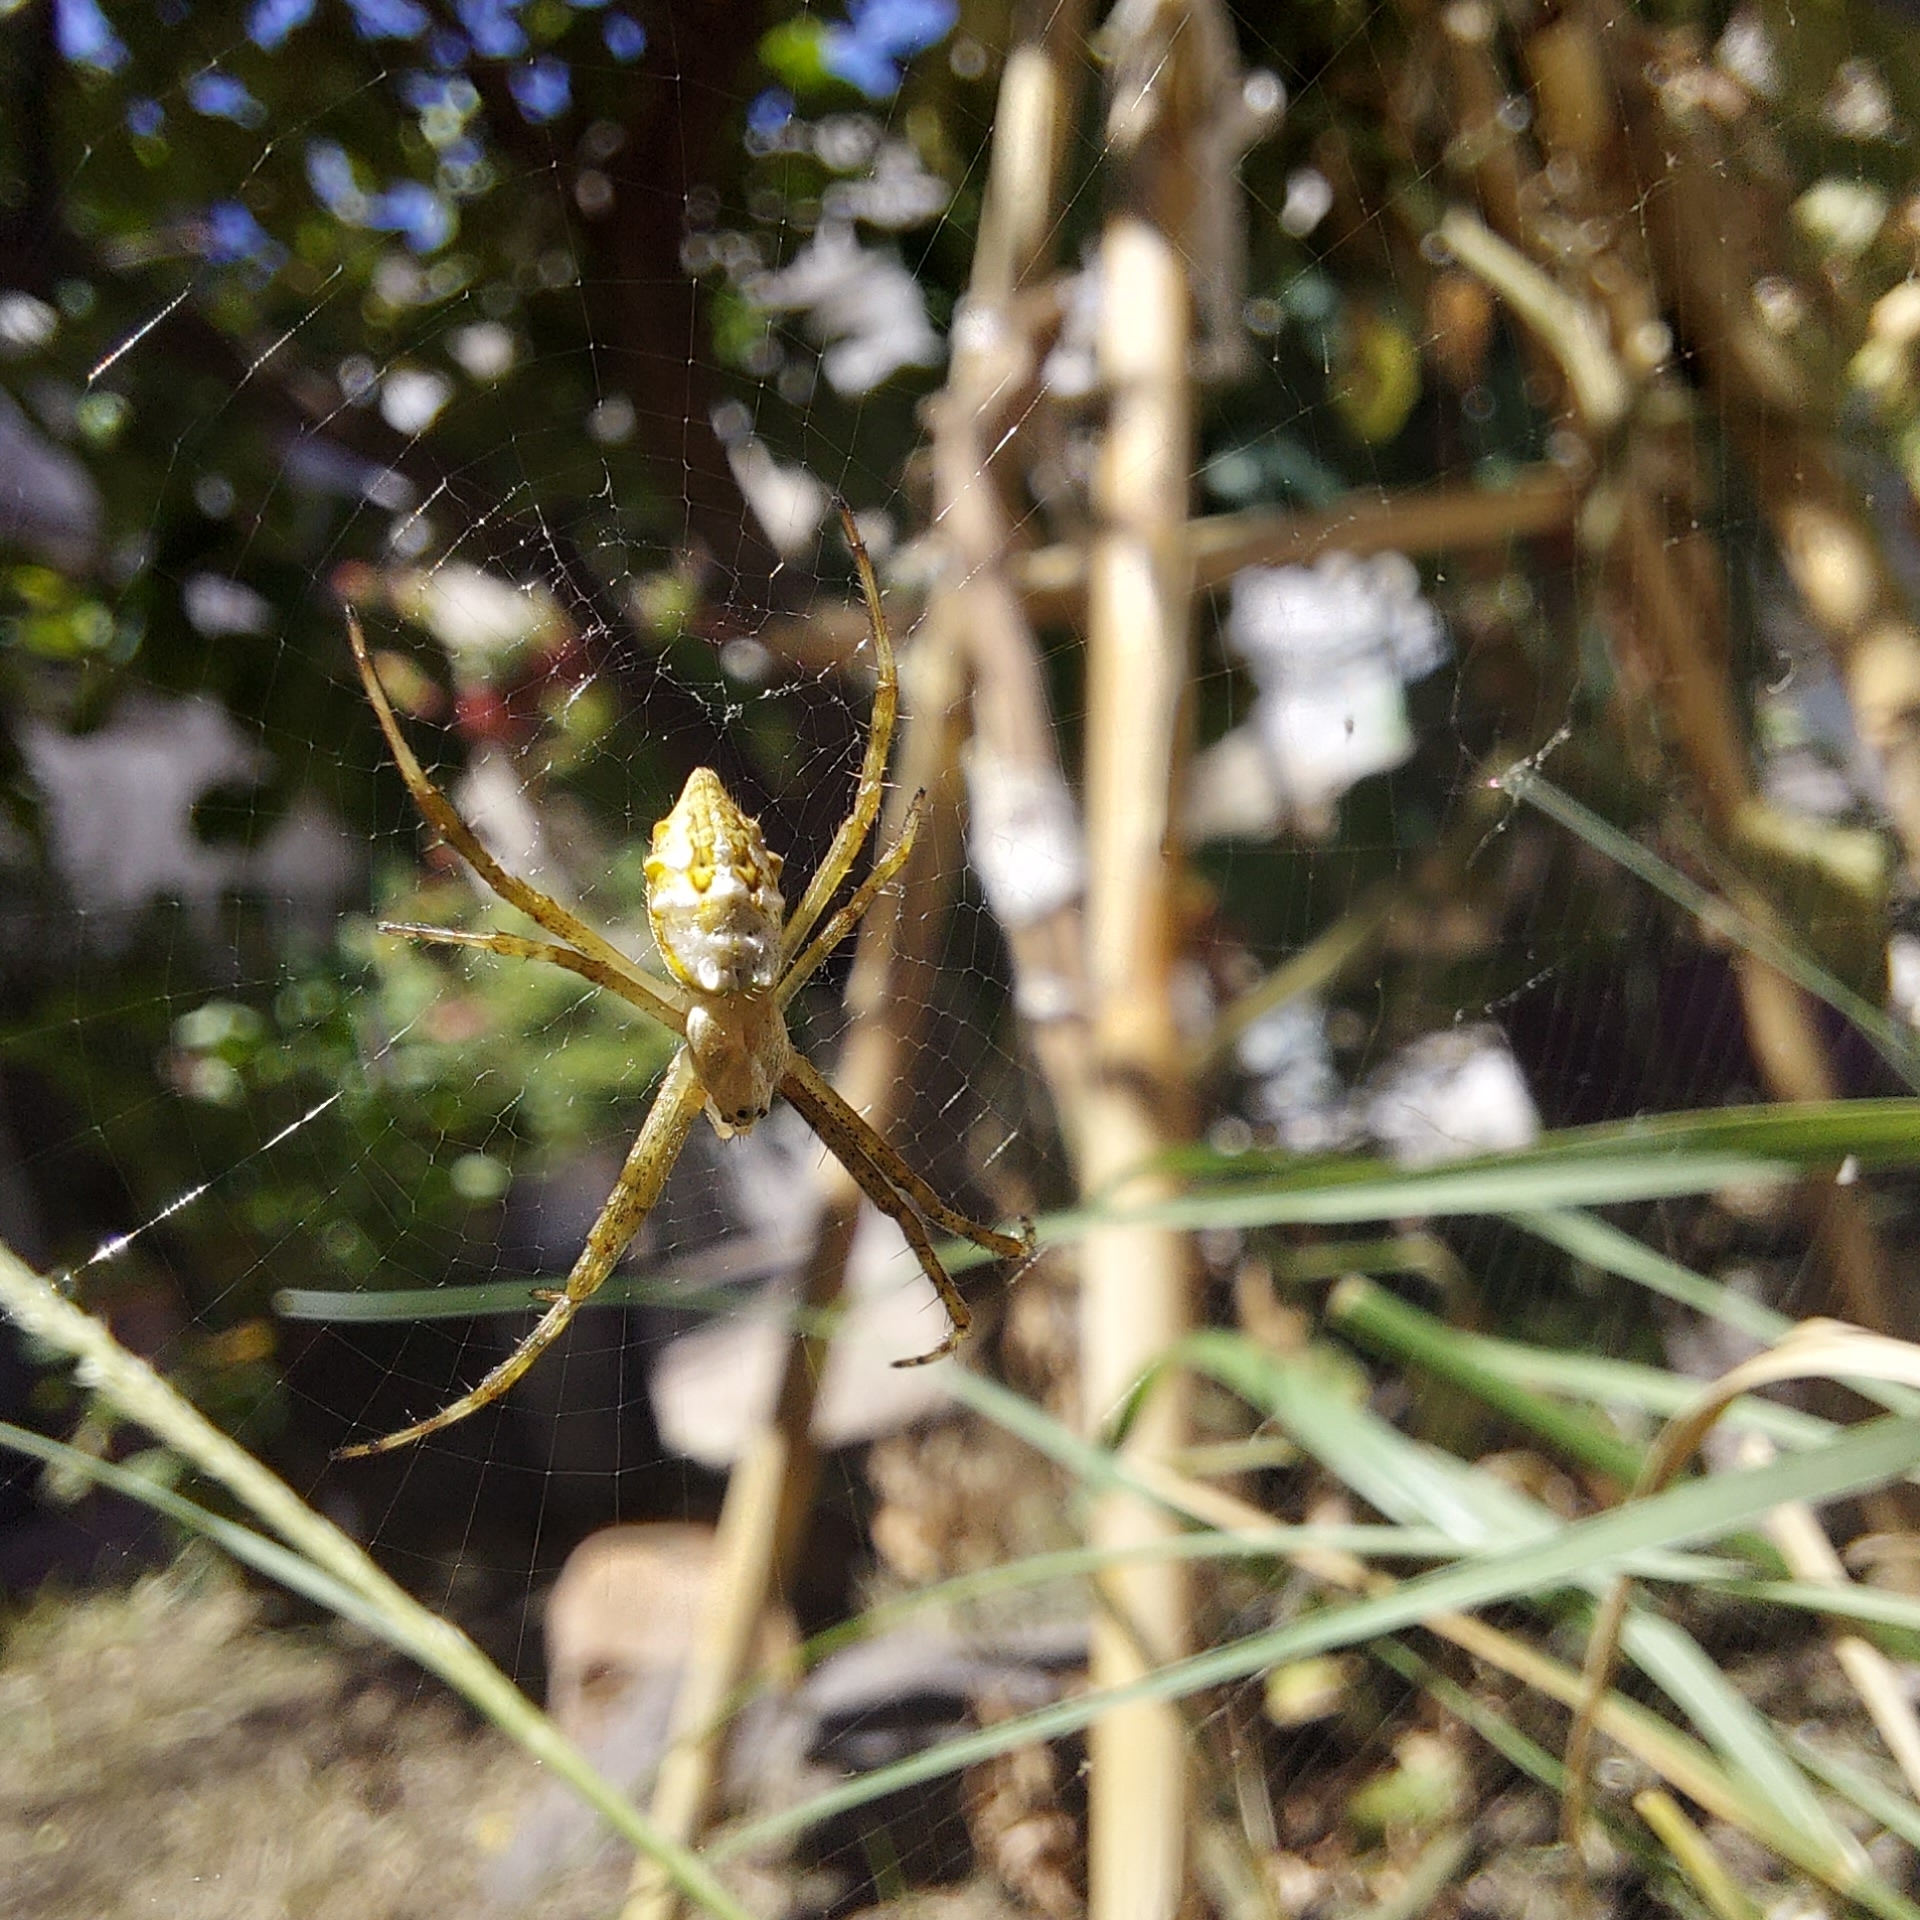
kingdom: Animalia
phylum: Arthropoda
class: Arachnida
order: Araneae
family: Araneidae
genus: Argiope
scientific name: Argiope argentata
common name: Orb weavers
